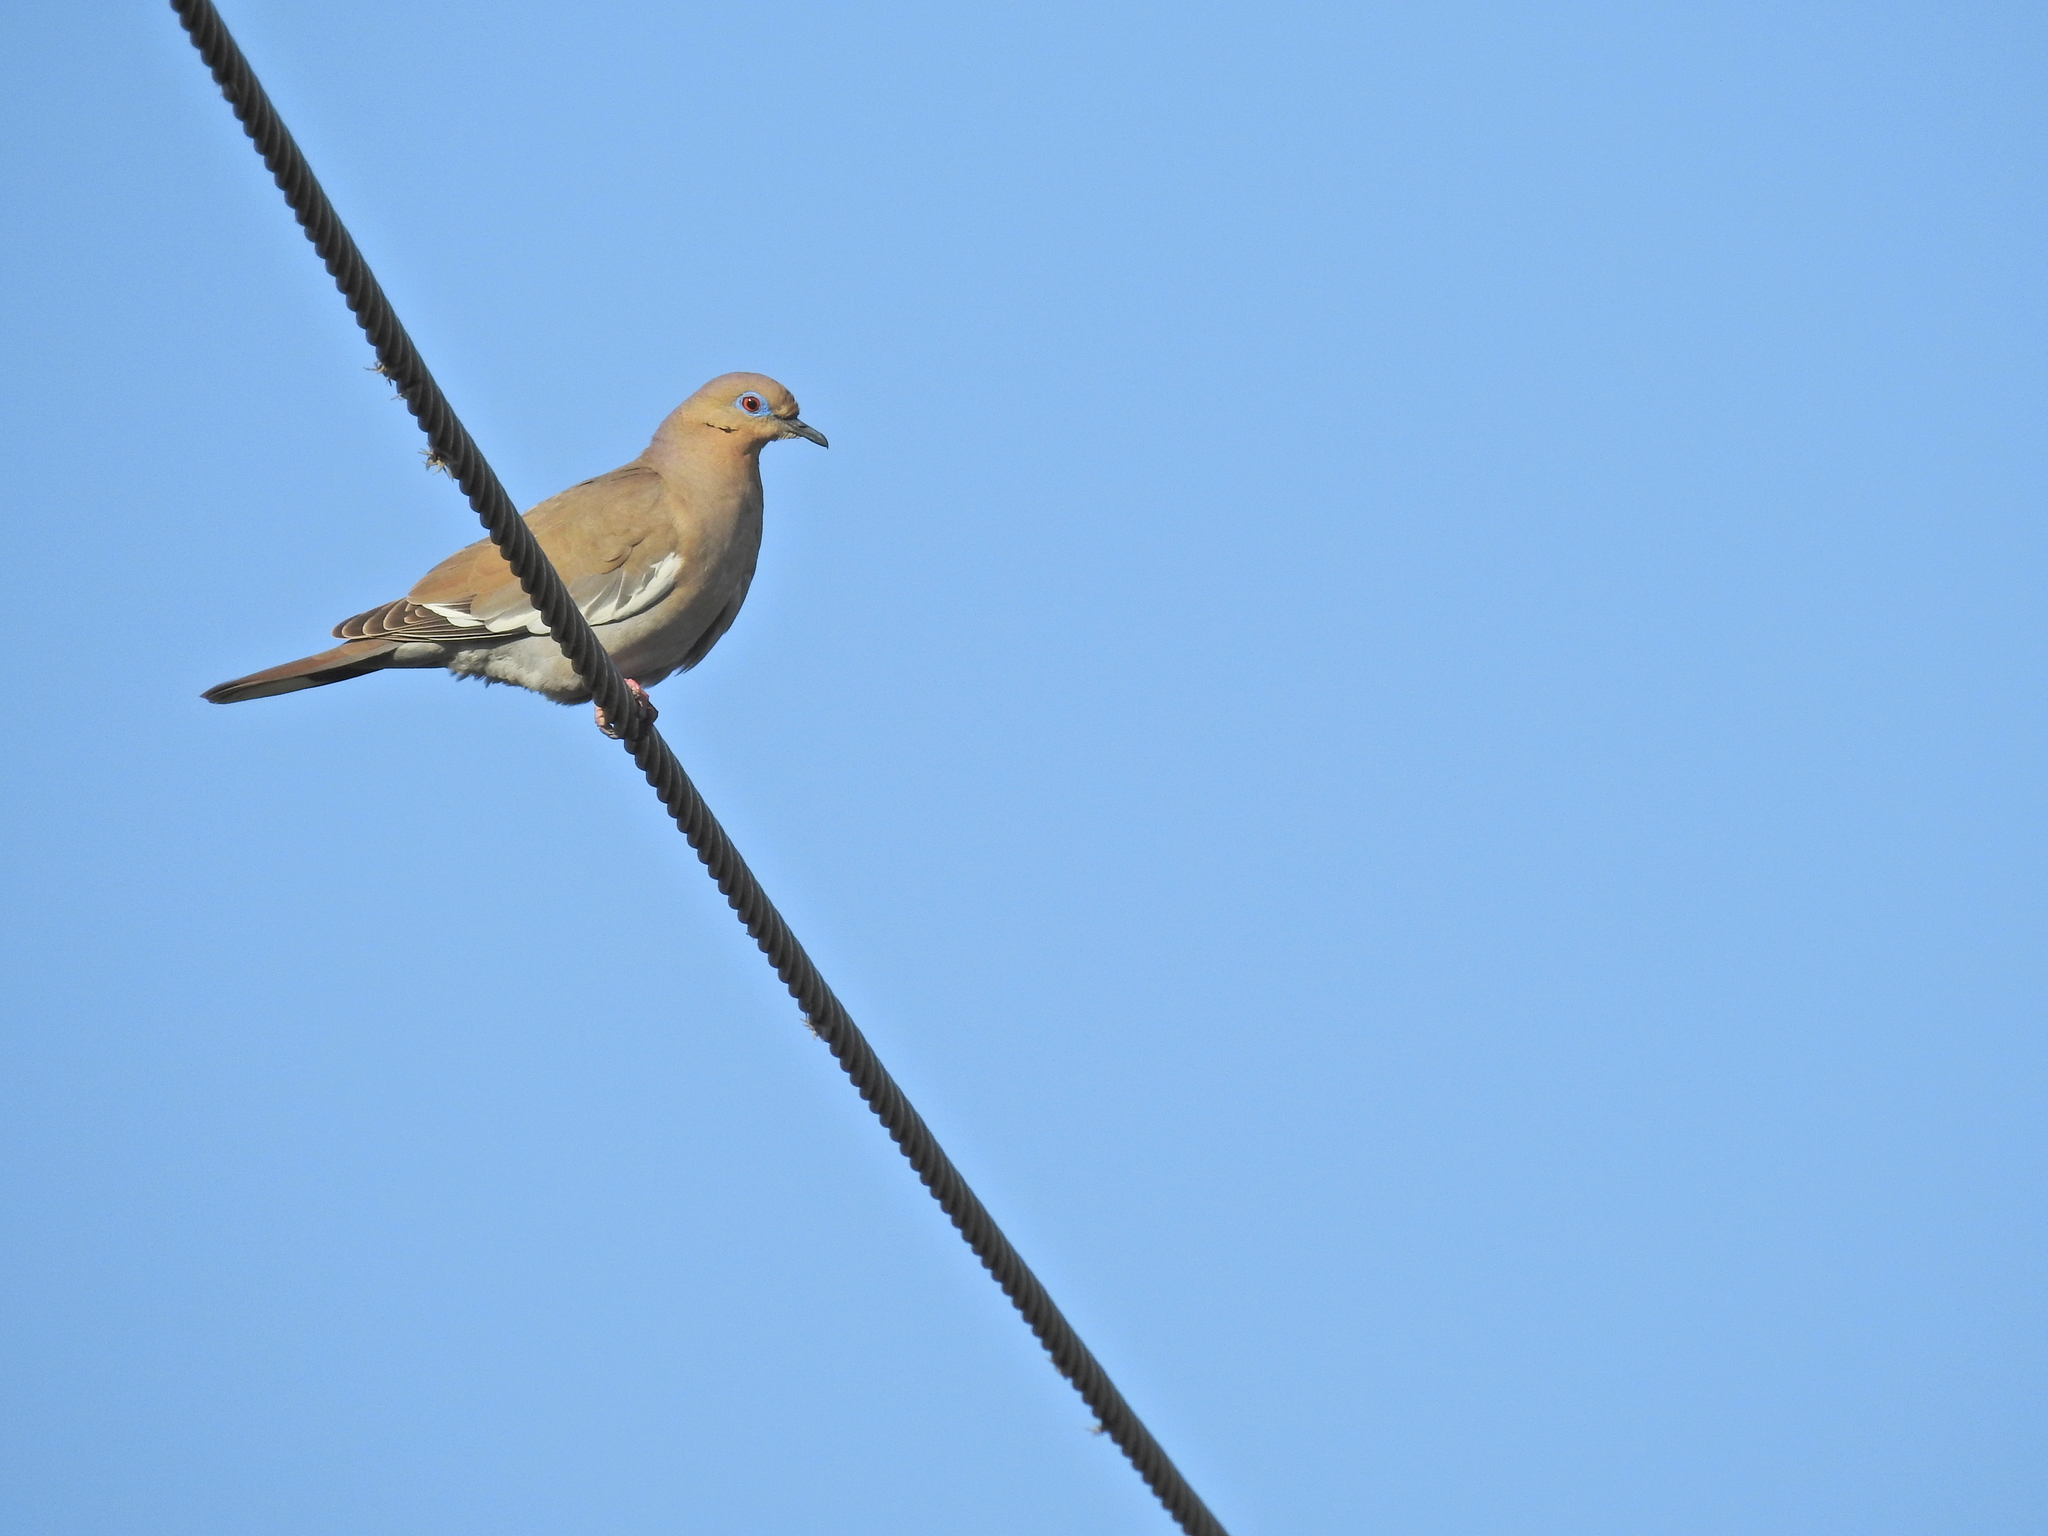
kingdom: Animalia
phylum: Chordata
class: Aves
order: Columbiformes
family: Columbidae
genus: Zenaida
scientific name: Zenaida asiatica
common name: White-winged dove
